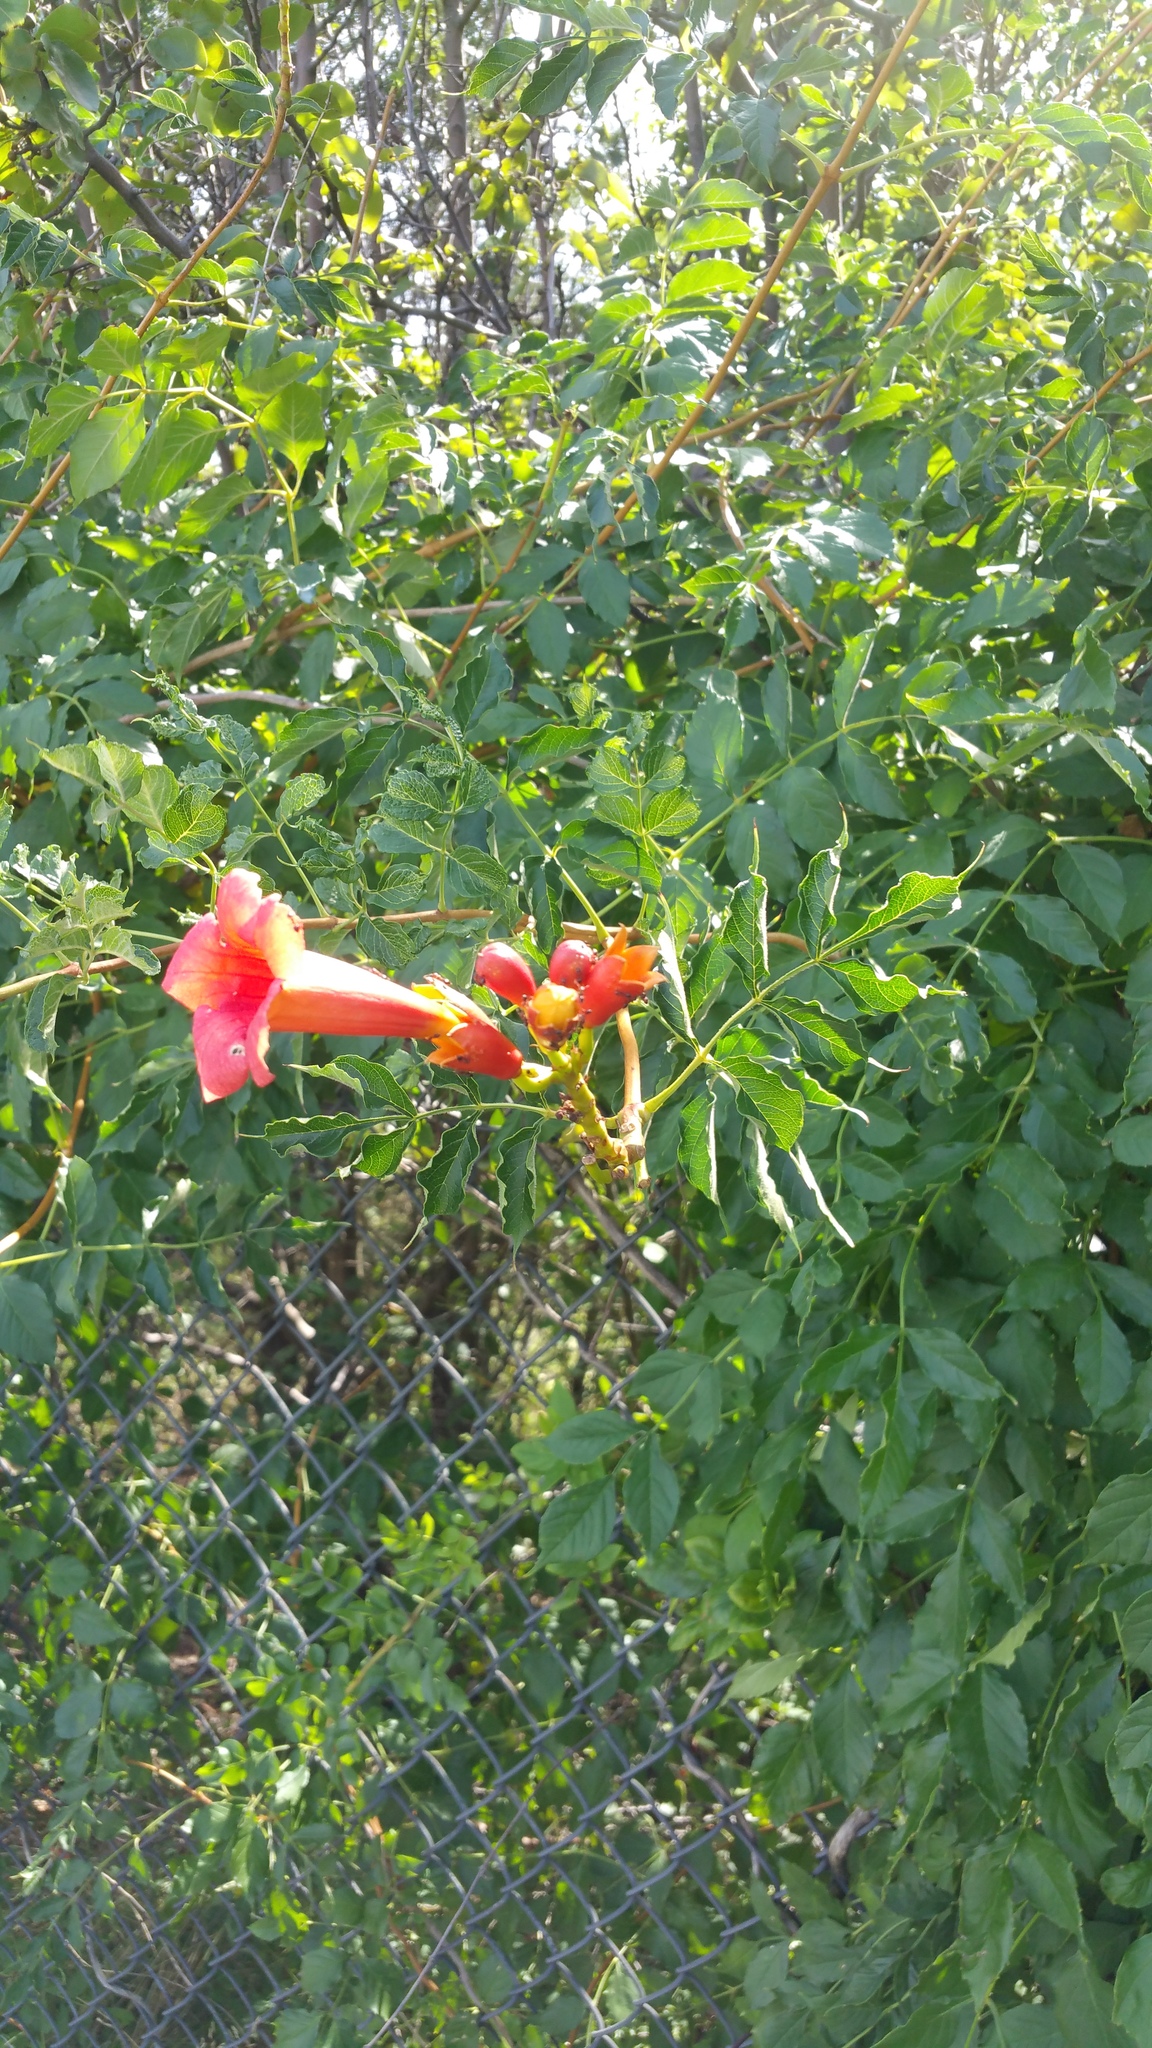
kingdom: Plantae
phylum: Tracheophyta
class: Magnoliopsida
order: Lamiales
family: Bignoniaceae
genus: Campsis
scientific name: Campsis radicans
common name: Trumpet-creeper
